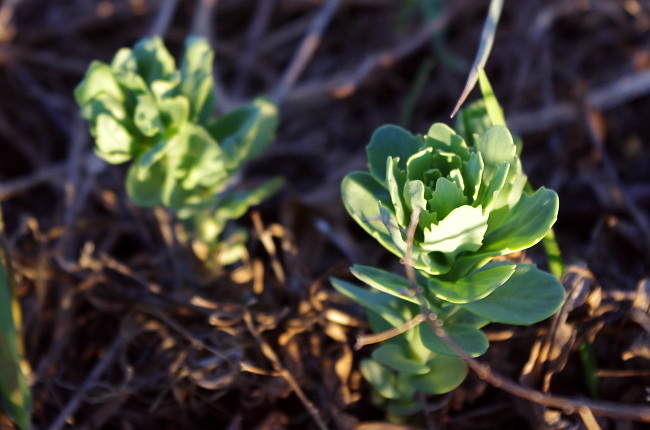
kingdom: Plantae
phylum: Tracheophyta
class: Magnoliopsida
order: Saxifragales
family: Crassulaceae
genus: Hylotelephium
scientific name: Hylotelephium telephium
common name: Live-forever
